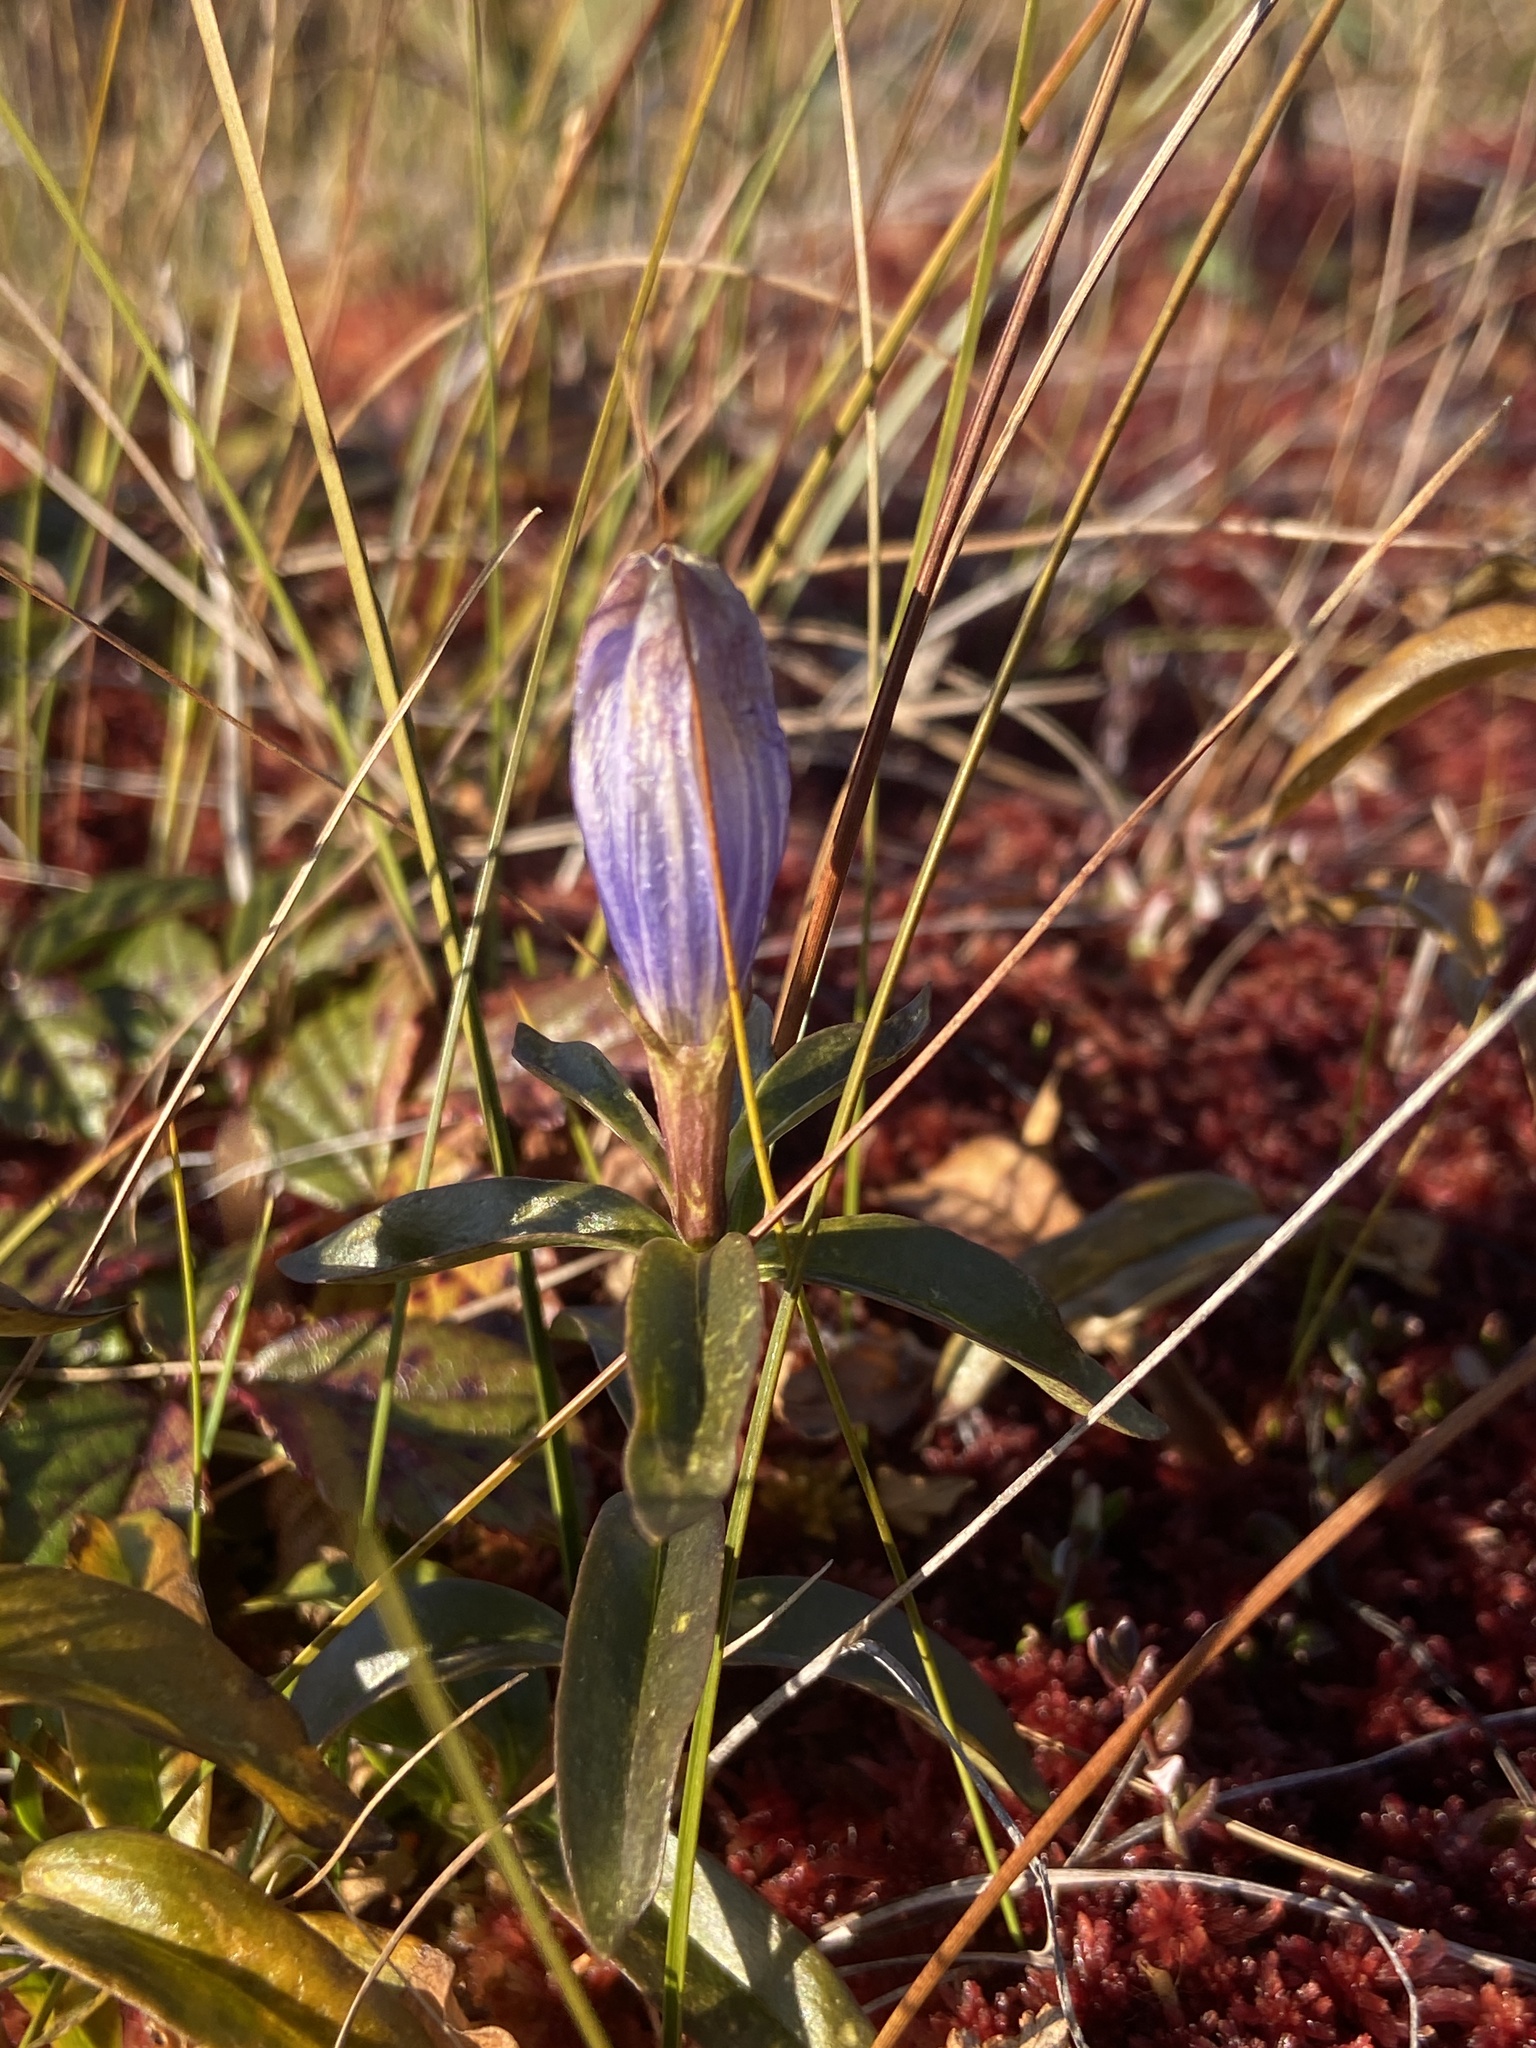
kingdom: Plantae
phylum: Tracheophyta
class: Magnoliopsida
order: Gentianales
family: Gentianaceae
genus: Gentiana
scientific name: Gentiana linearis
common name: Bastard gentian
